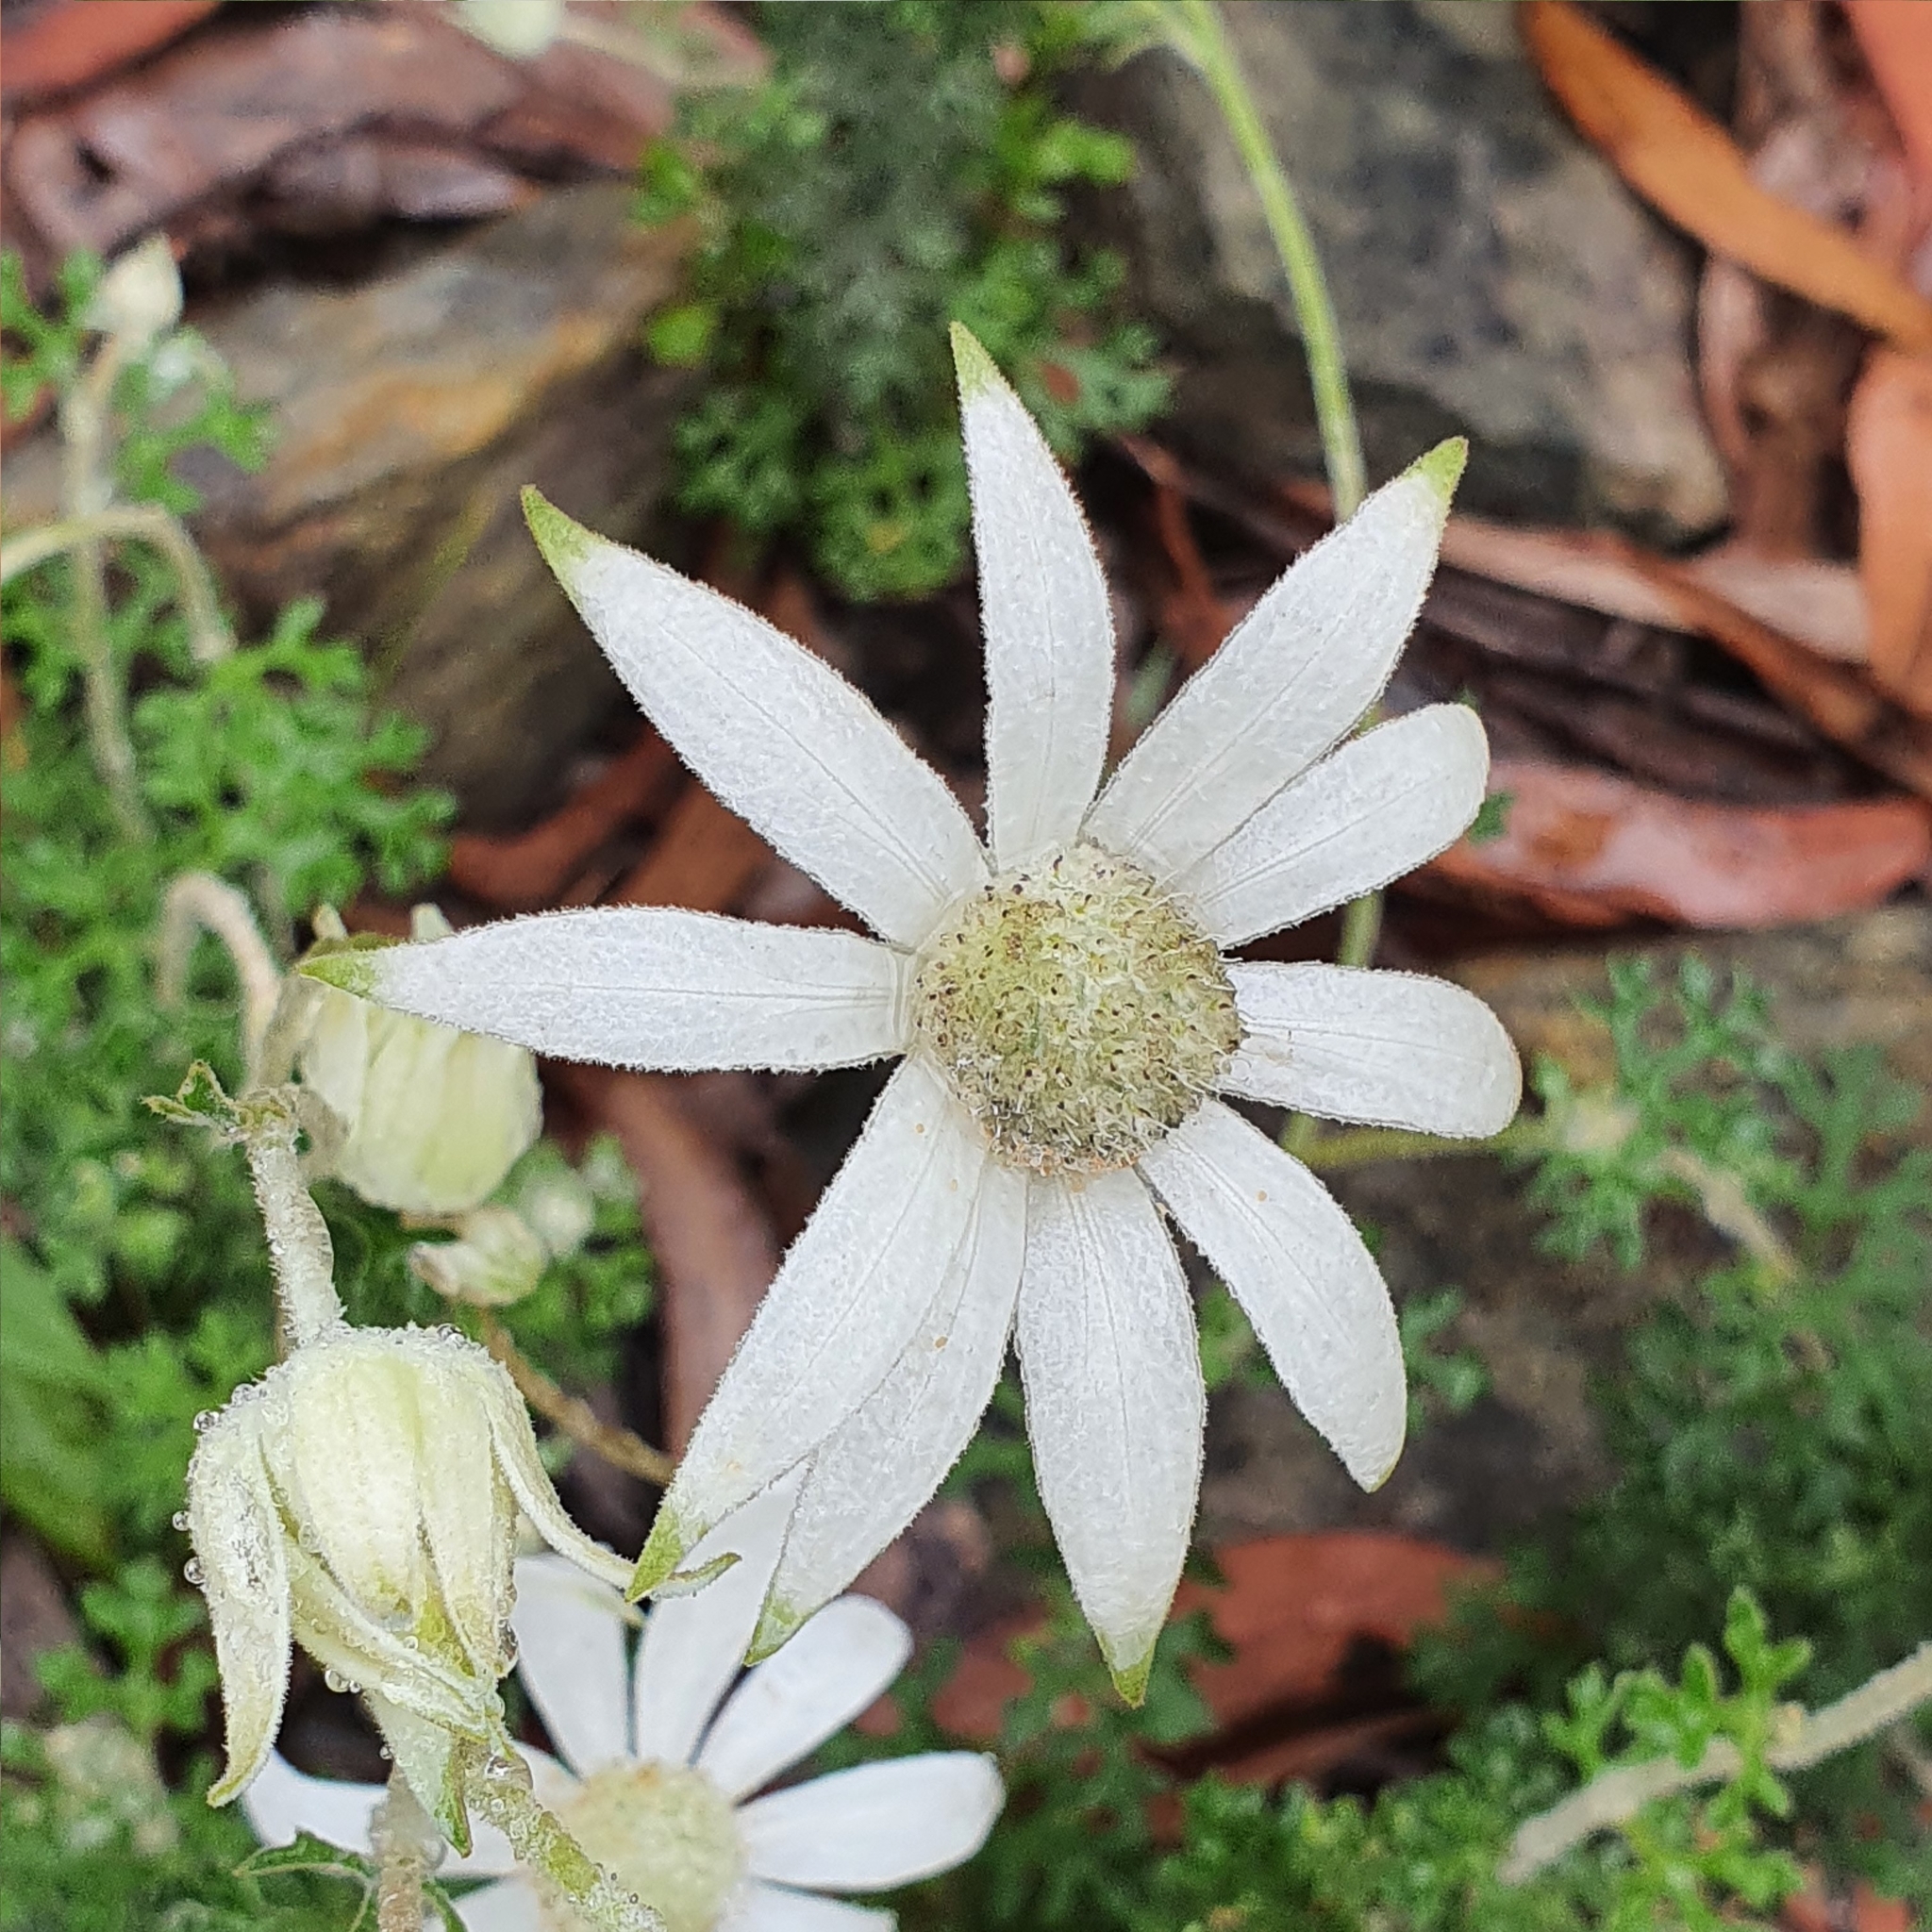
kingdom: Plantae
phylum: Tracheophyta
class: Magnoliopsida
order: Apiales
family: Apiaceae
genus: Actinotus
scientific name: Actinotus helianthi
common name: Flannel-flower
